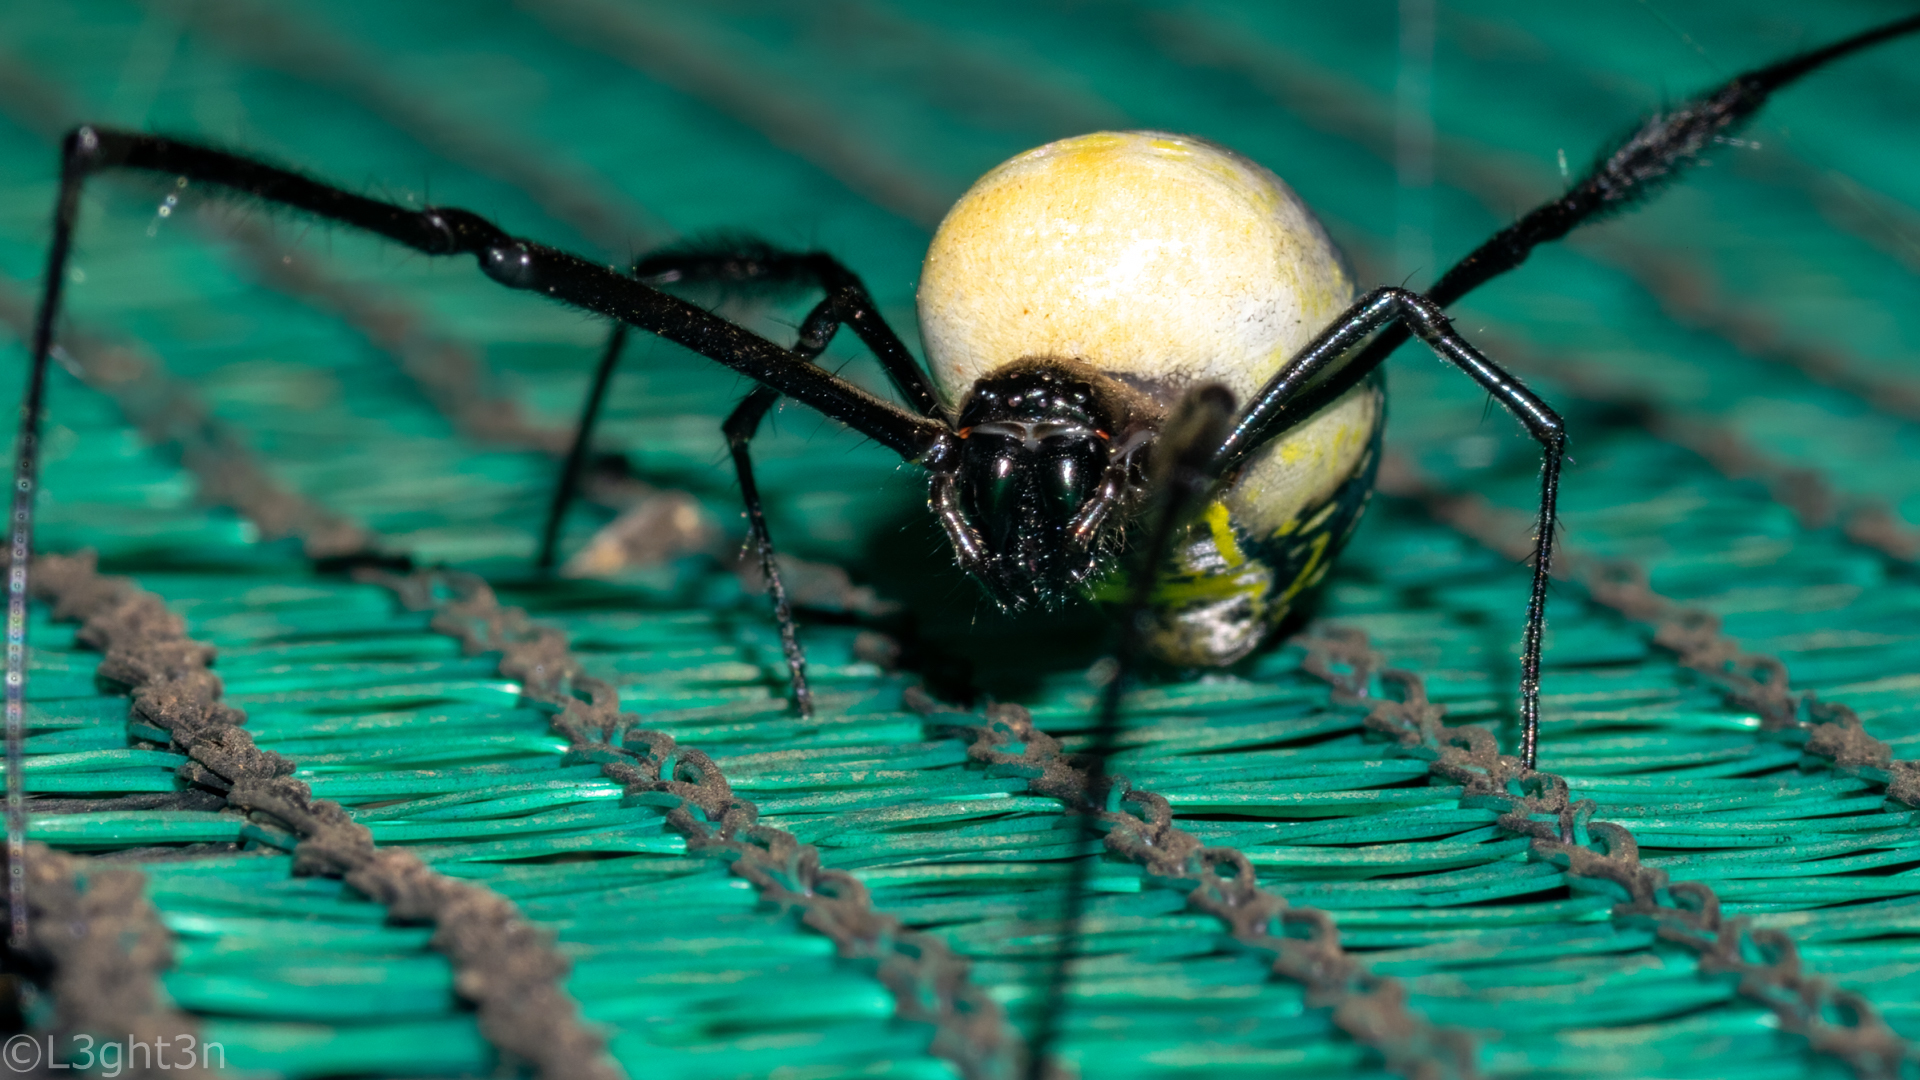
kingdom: Animalia
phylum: Arthropoda
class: Arachnida
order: Araneae
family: Araneidae
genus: Trichonephila
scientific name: Trichonephila fenestrata
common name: Hairy golden orb weaver
